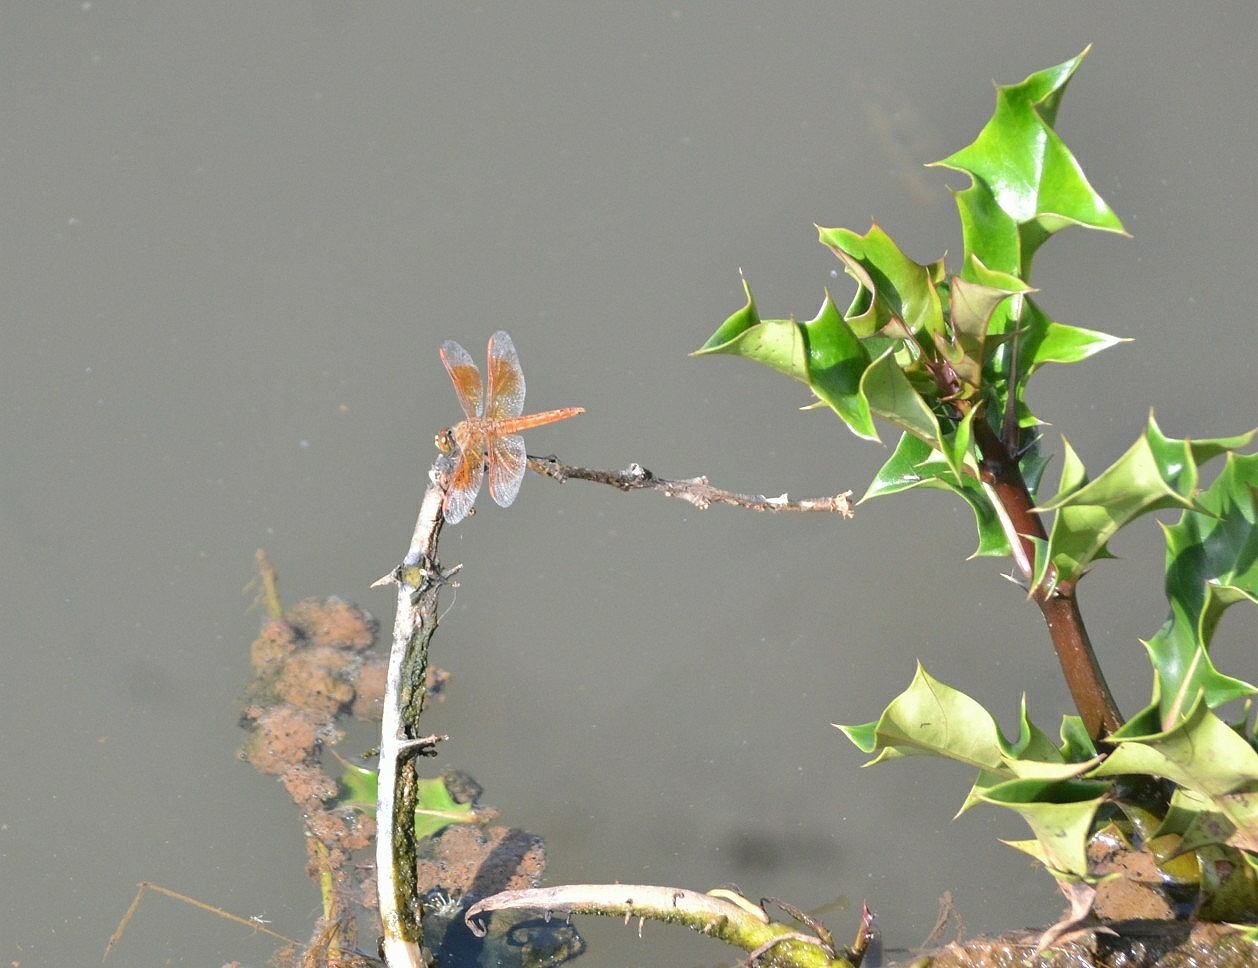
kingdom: Animalia
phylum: Arthropoda
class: Insecta
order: Odonata
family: Libellulidae
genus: Brachythemis
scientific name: Brachythemis contaminata
